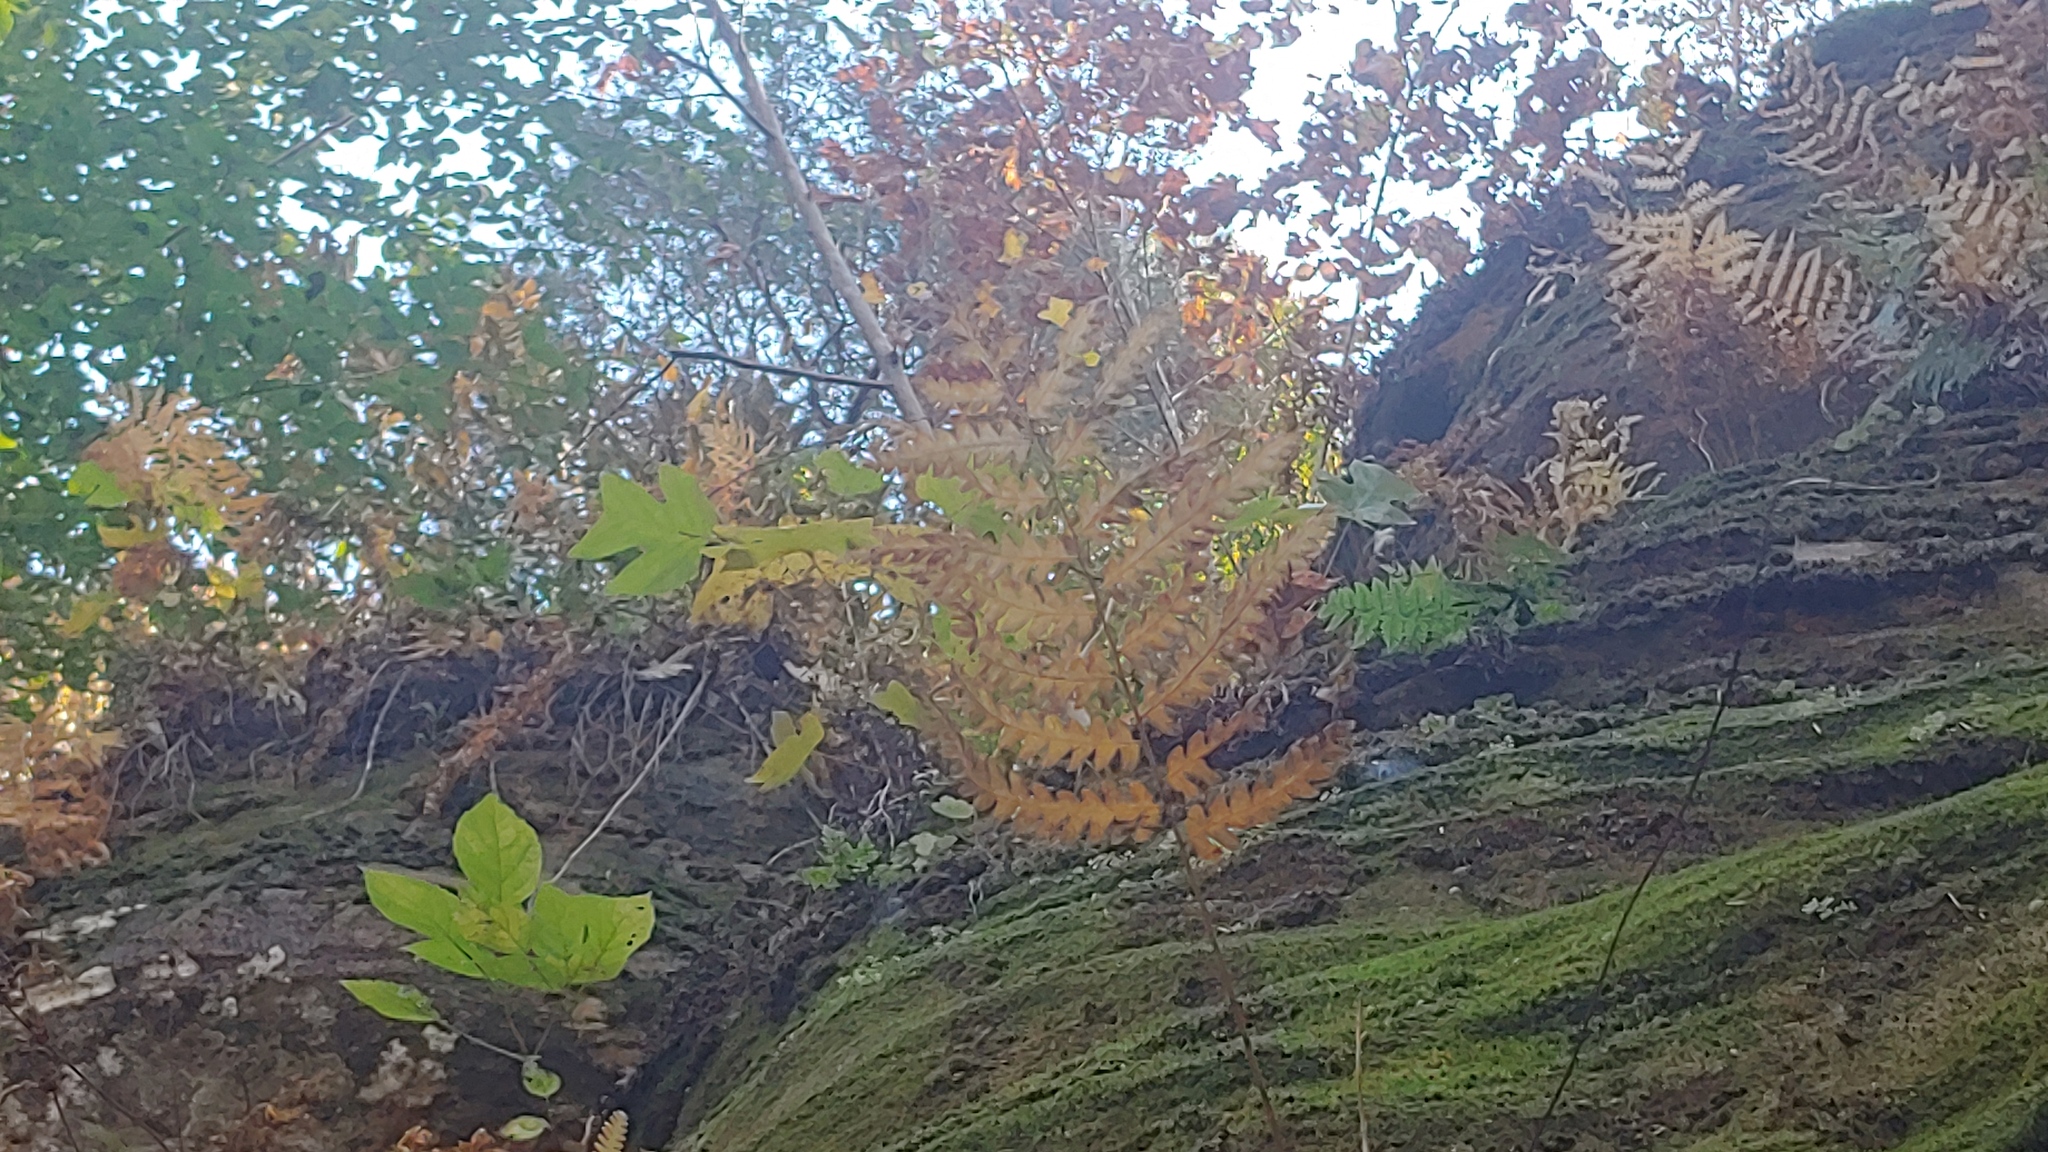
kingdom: Plantae
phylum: Tracheophyta
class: Polypodiopsida
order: Osmundales
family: Osmundaceae
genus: Osmundastrum
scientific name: Osmundastrum cinnamomeum
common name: Cinnamon fern
